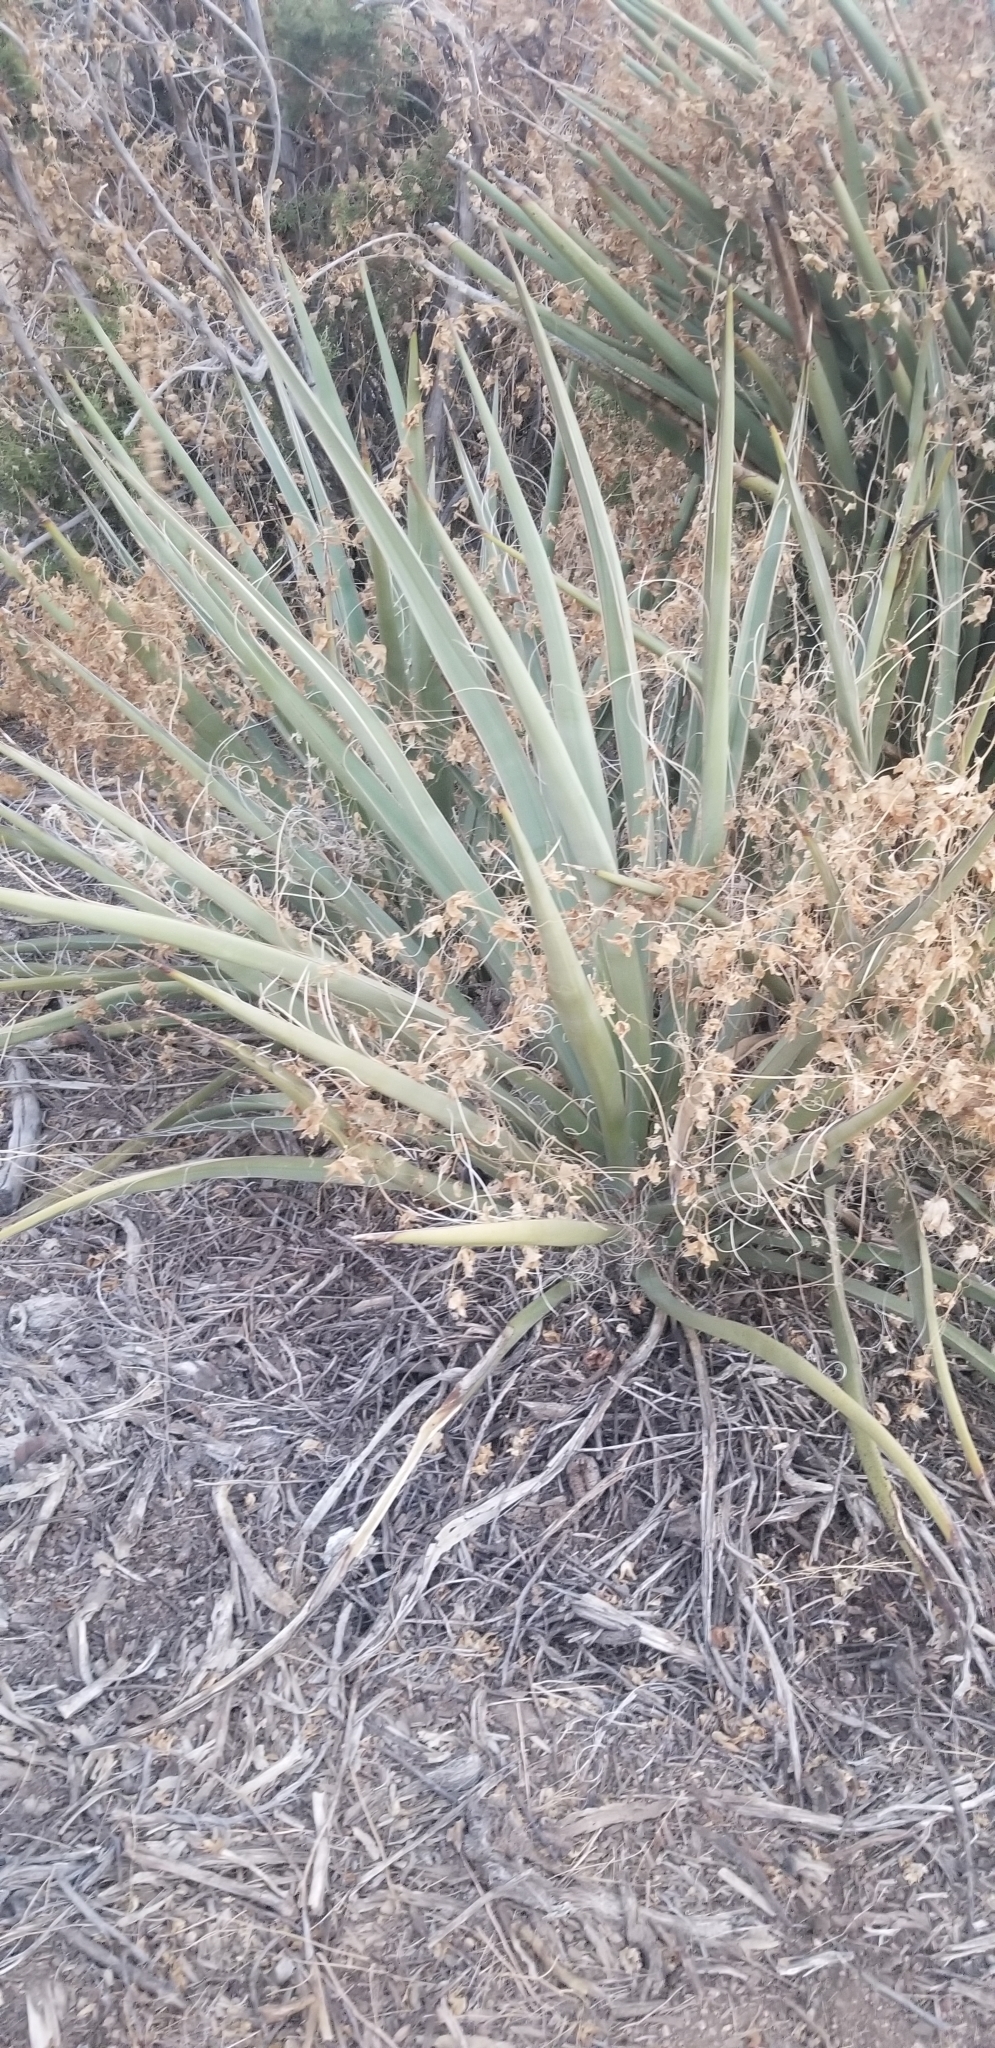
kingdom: Plantae
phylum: Tracheophyta
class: Liliopsida
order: Asparagales
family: Asparagaceae
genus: Yucca
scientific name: Yucca schidigera
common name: Mojave yucca
